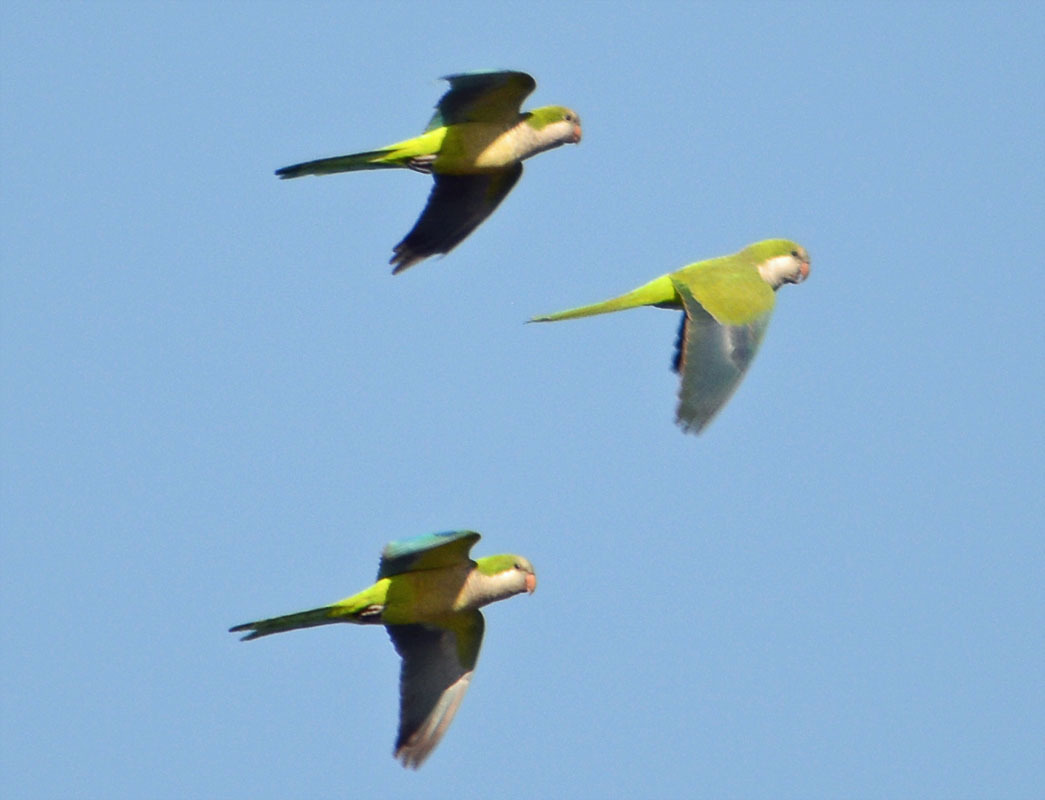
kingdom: Animalia
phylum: Chordata
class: Aves
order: Psittaciformes
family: Psittacidae
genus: Myiopsitta
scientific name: Myiopsitta monachus
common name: Monk parakeet
